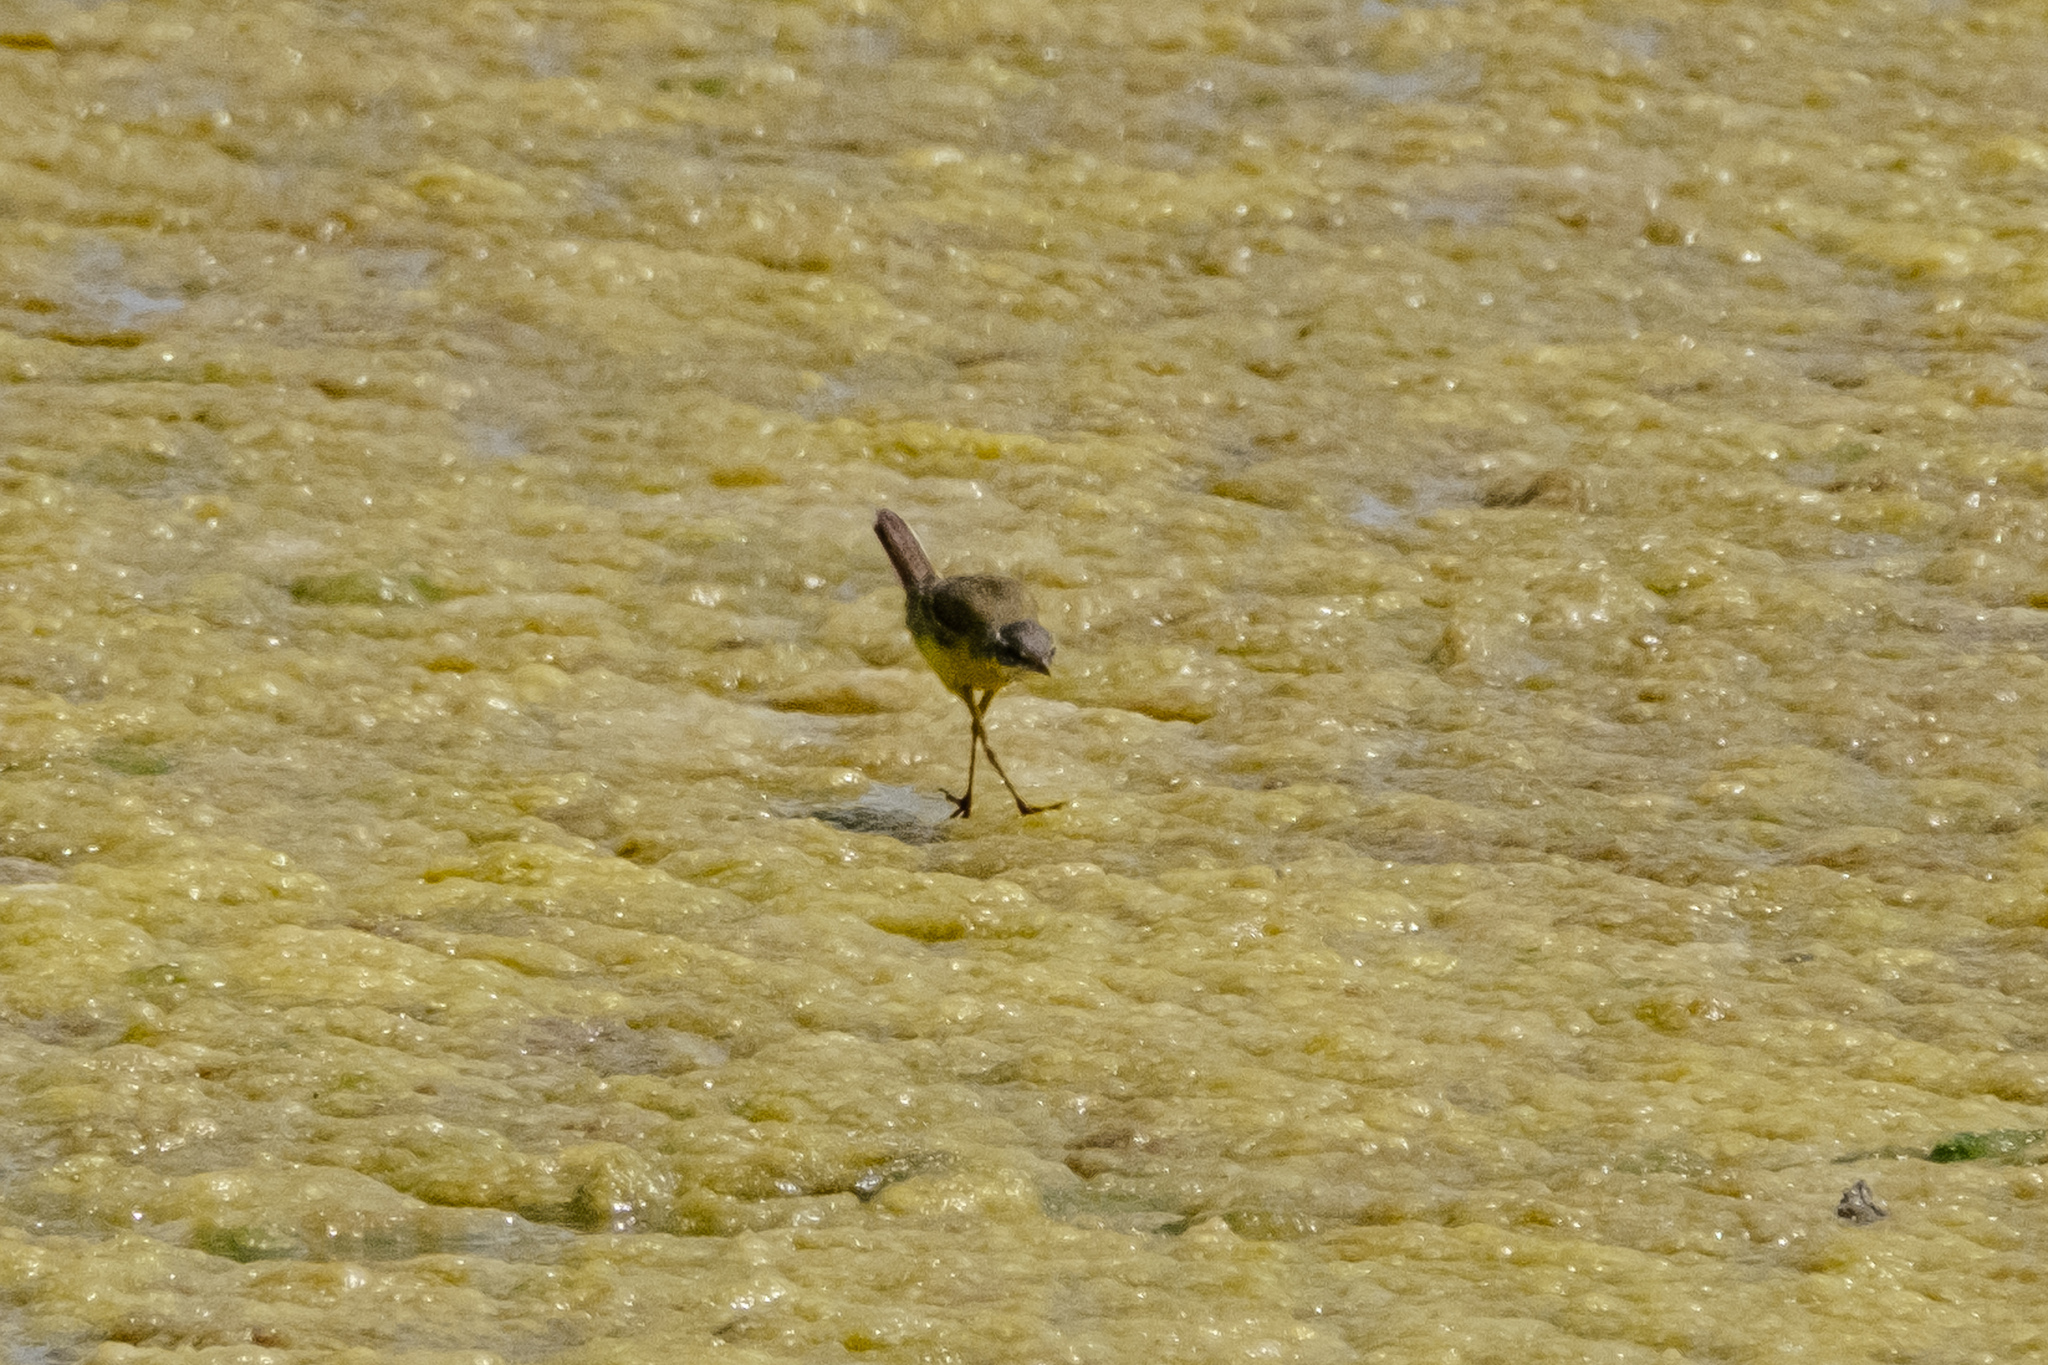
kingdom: Animalia
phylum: Chordata
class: Aves
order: Passeriformes
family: Motacillidae
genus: Motacilla
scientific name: Motacilla flava
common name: Western yellow wagtail
